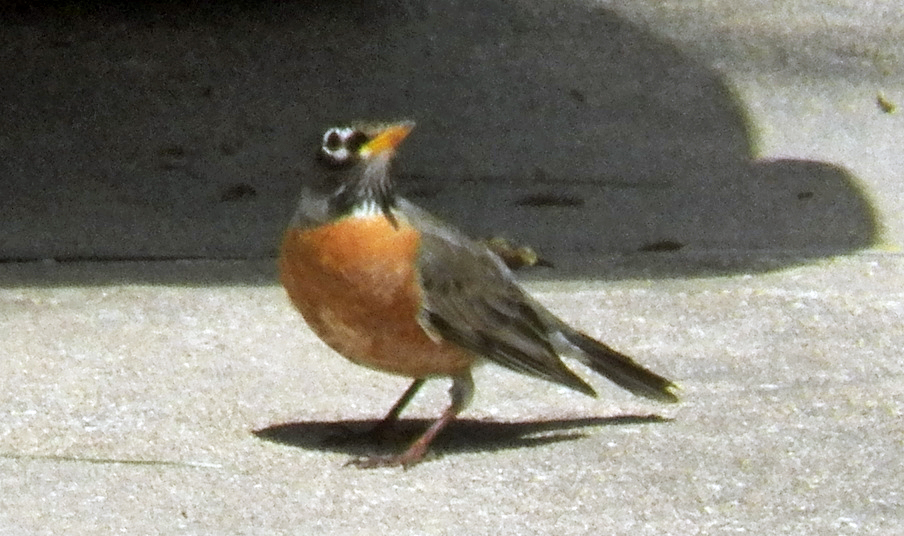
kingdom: Animalia
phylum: Chordata
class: Aves
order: Passeriformes
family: Turdidae
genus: Turdus
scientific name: Turdus migratorius
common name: American robin
